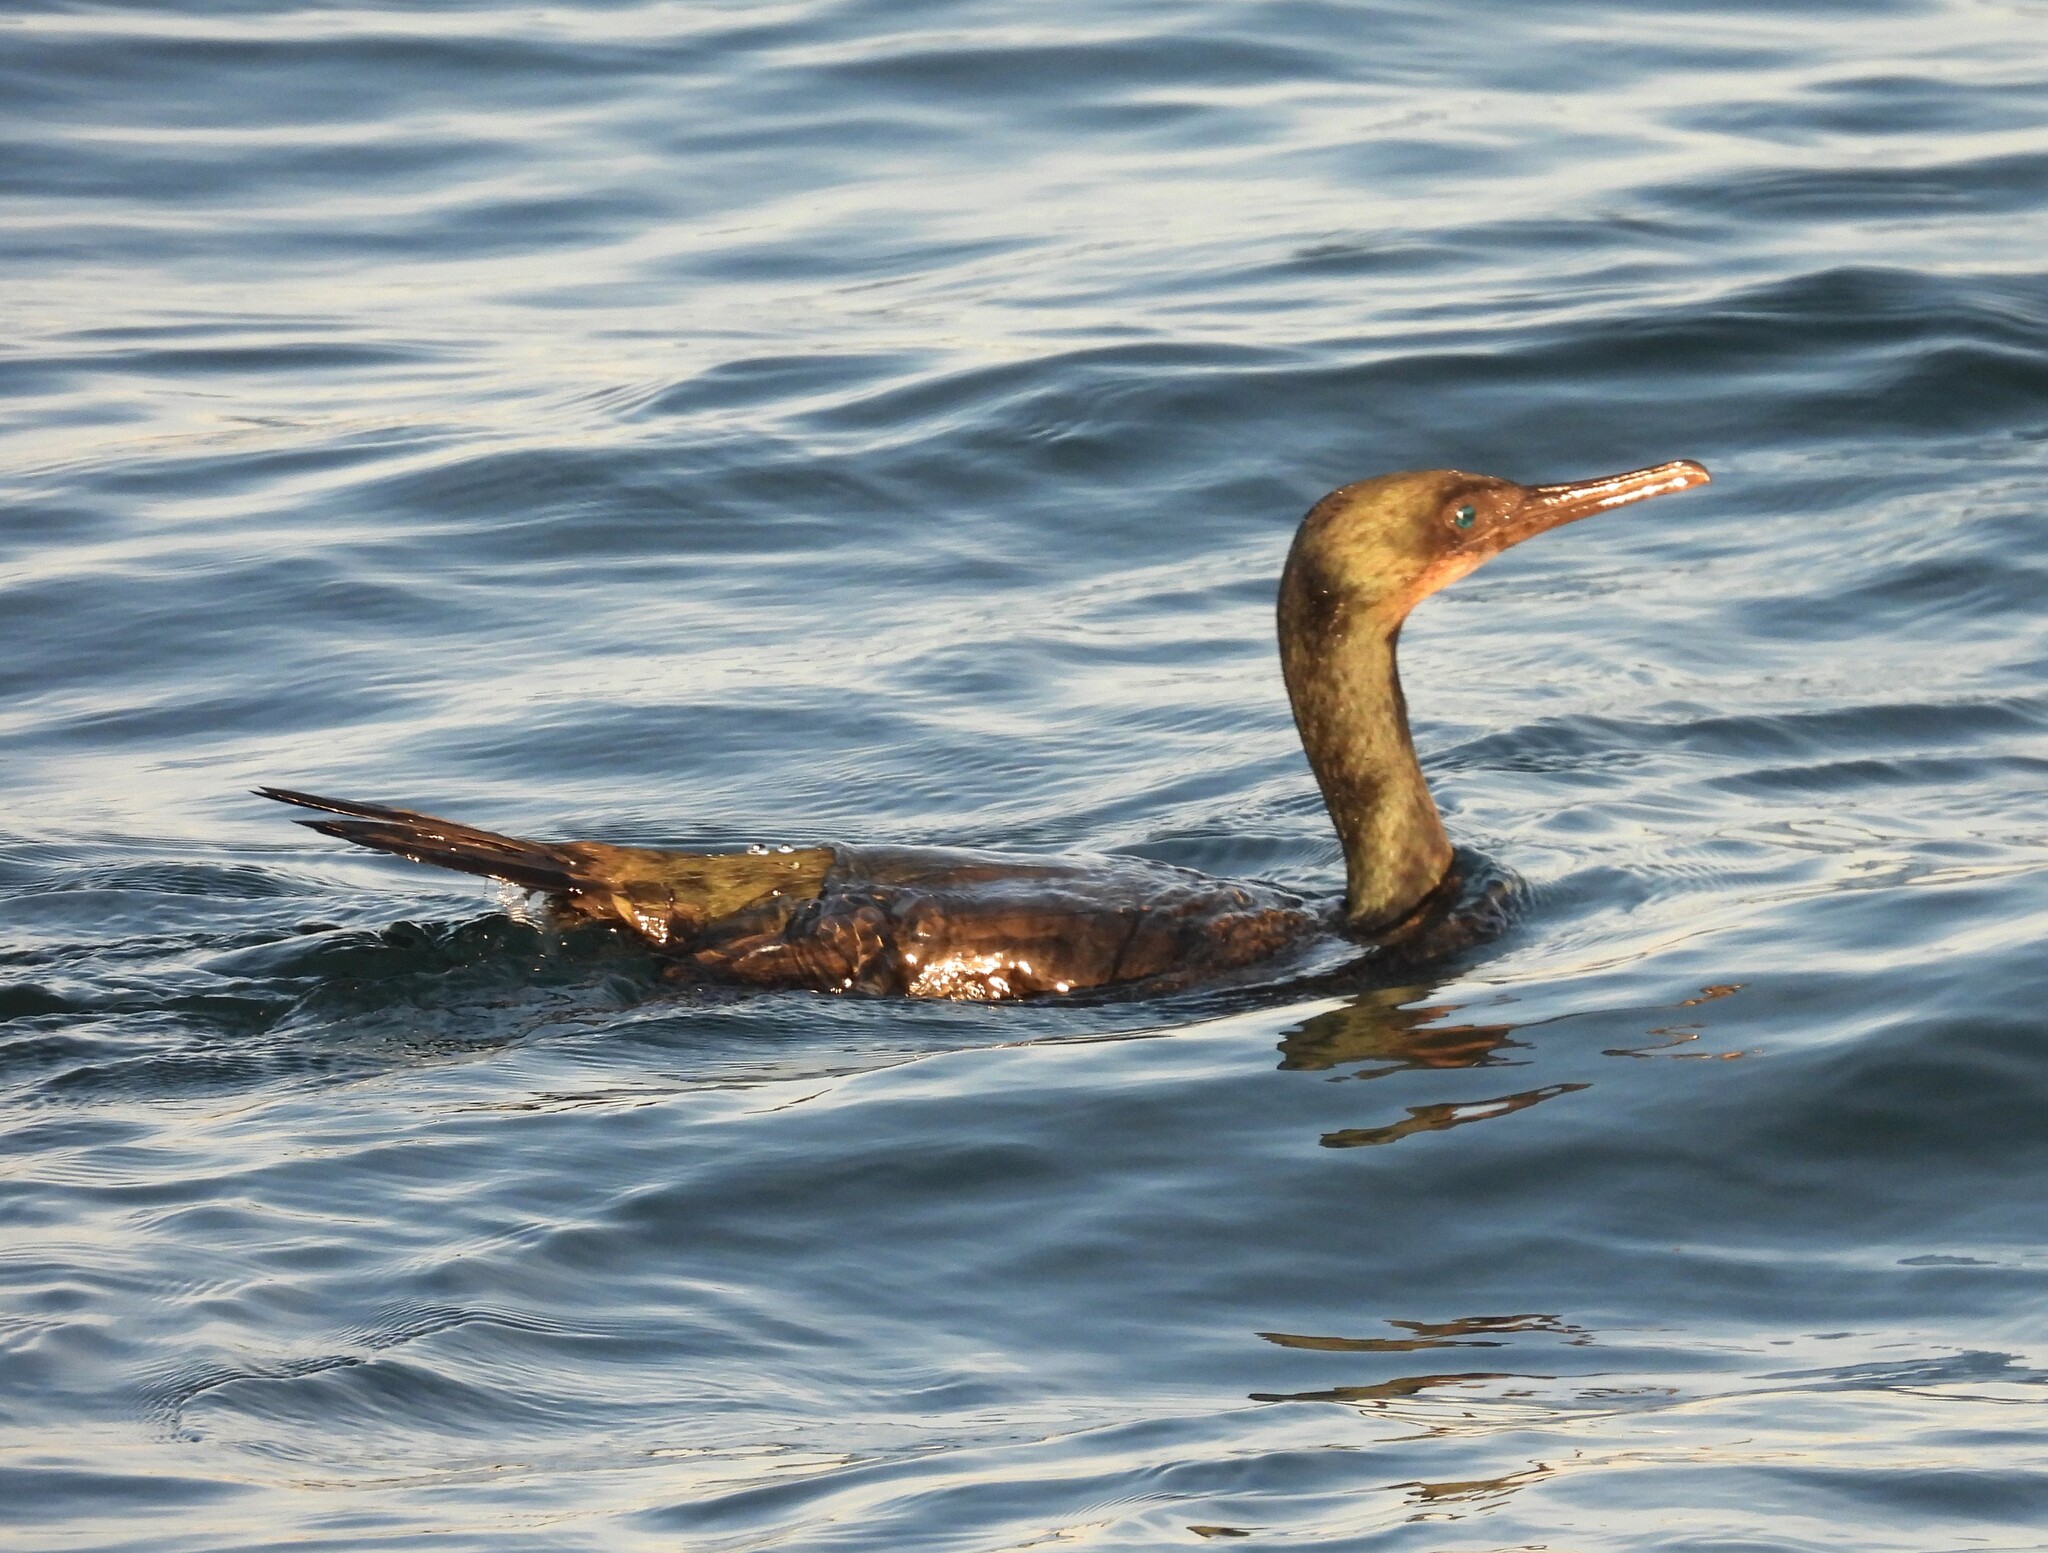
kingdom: Animalia
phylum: Chordata
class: Aves
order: Suliformes
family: Phalacrocoracidae
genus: Urile
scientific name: Urile penicillatus
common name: Brandt's cormorant
